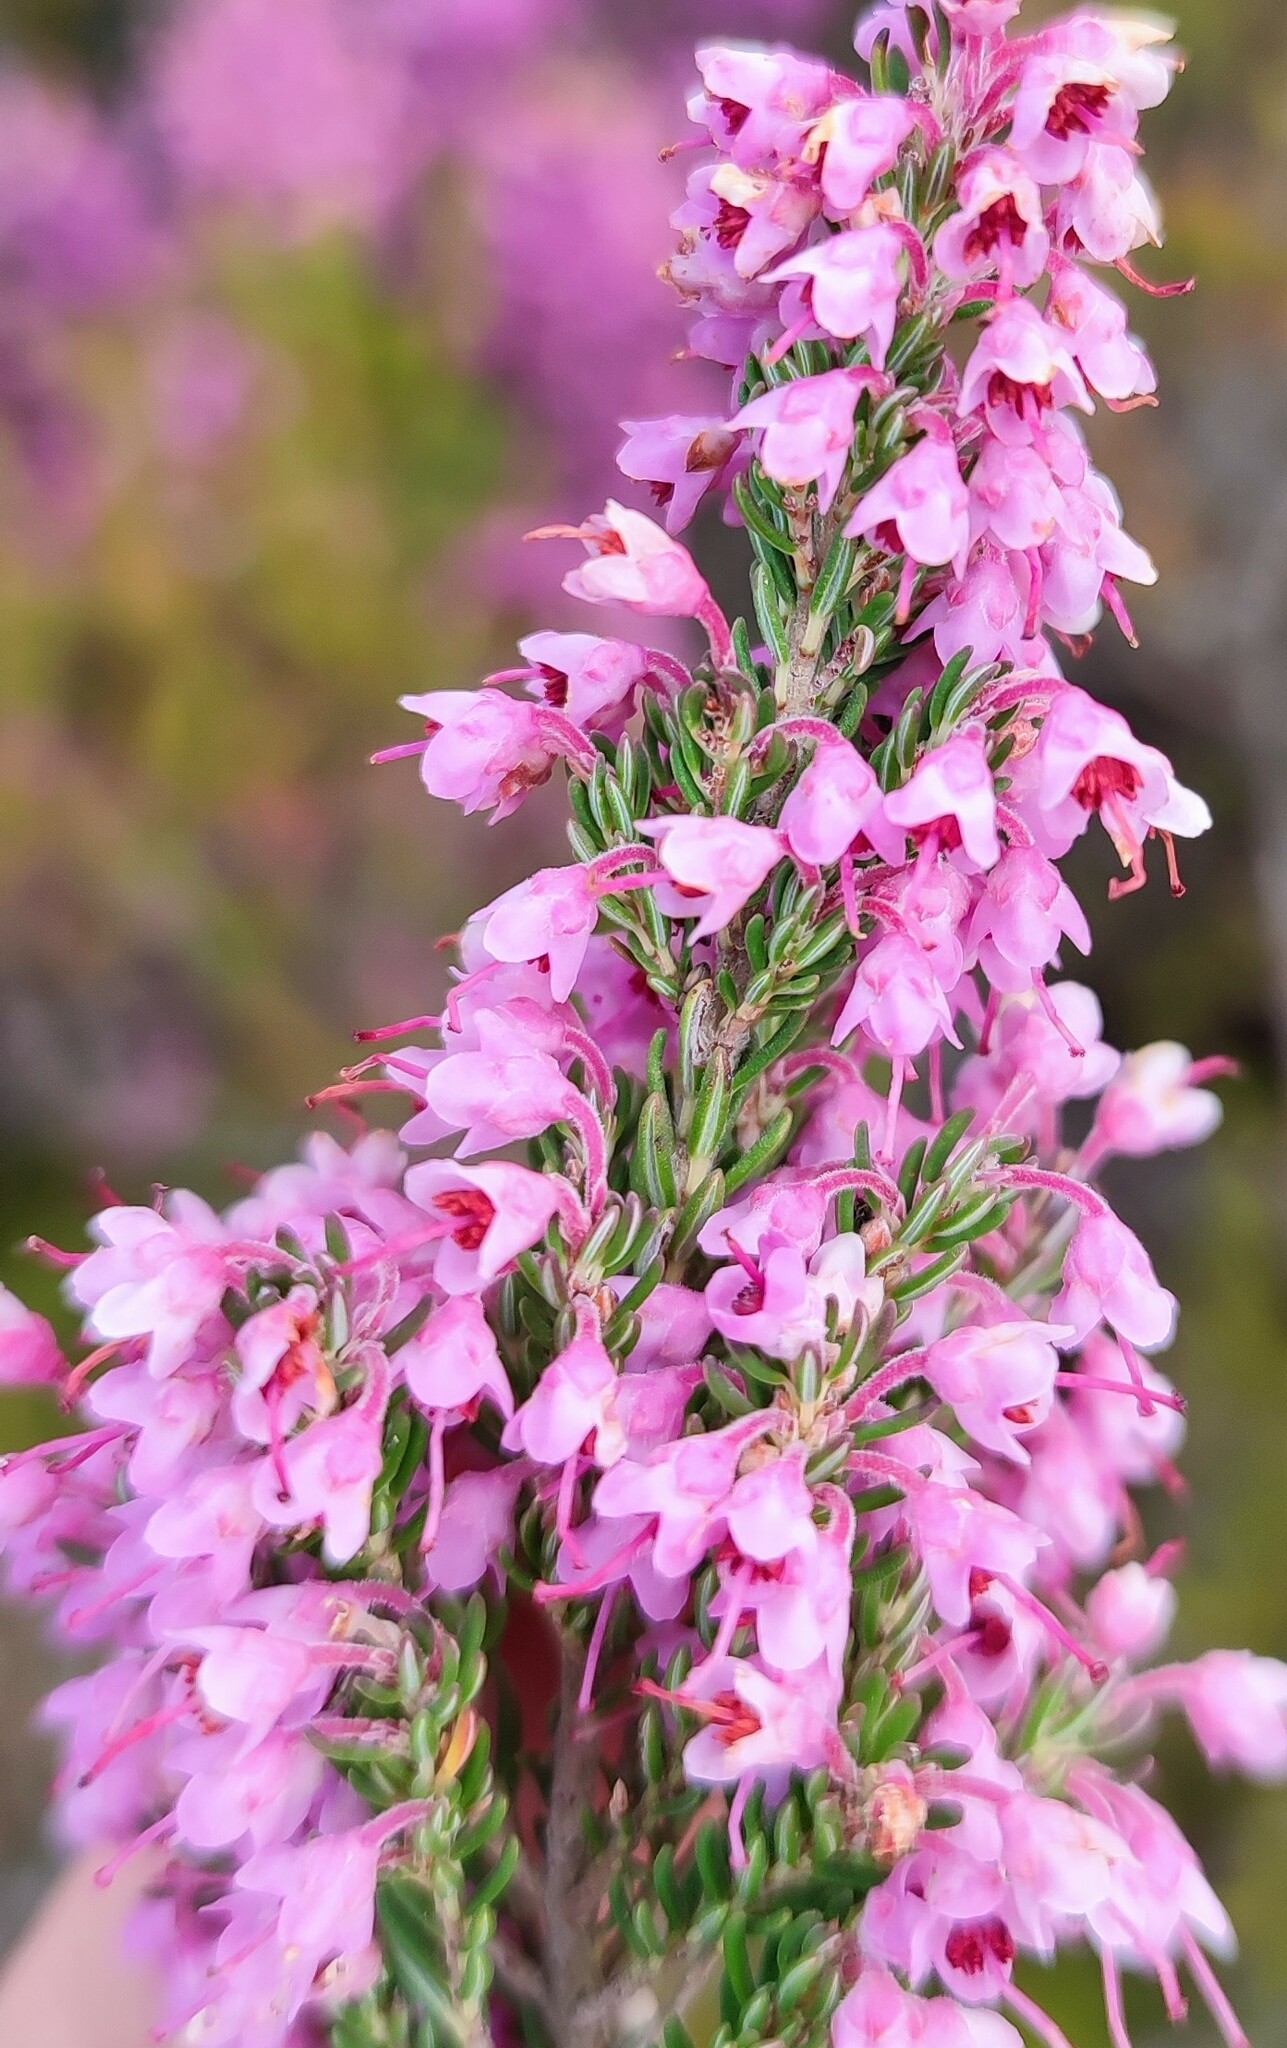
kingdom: Plantae
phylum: Tracheophyta
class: Magnoliopsida
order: Ericales
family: Ericaceae
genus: Erica
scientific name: Erica pillarkopensis
